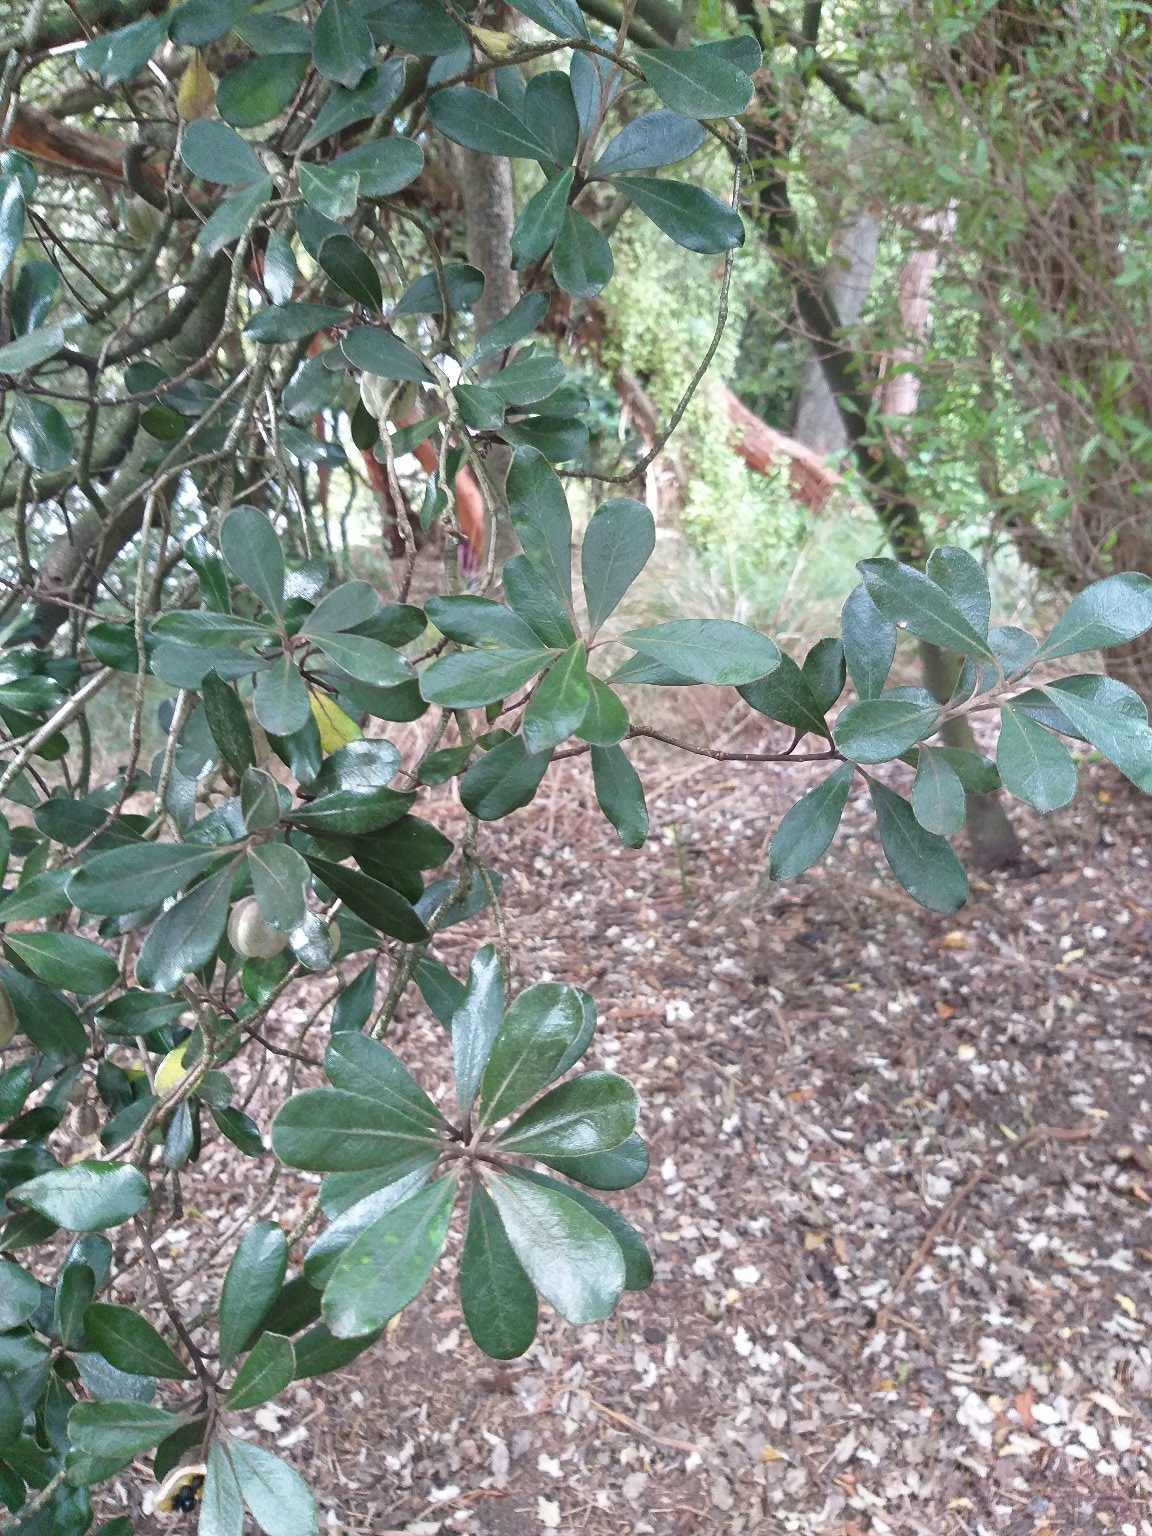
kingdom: Plantae
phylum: Tracheophyta
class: Magnoliopsida
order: Apiales
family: Pittosporaceae
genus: Pittosporum
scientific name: Pittosporum crassifolium
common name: Karo
